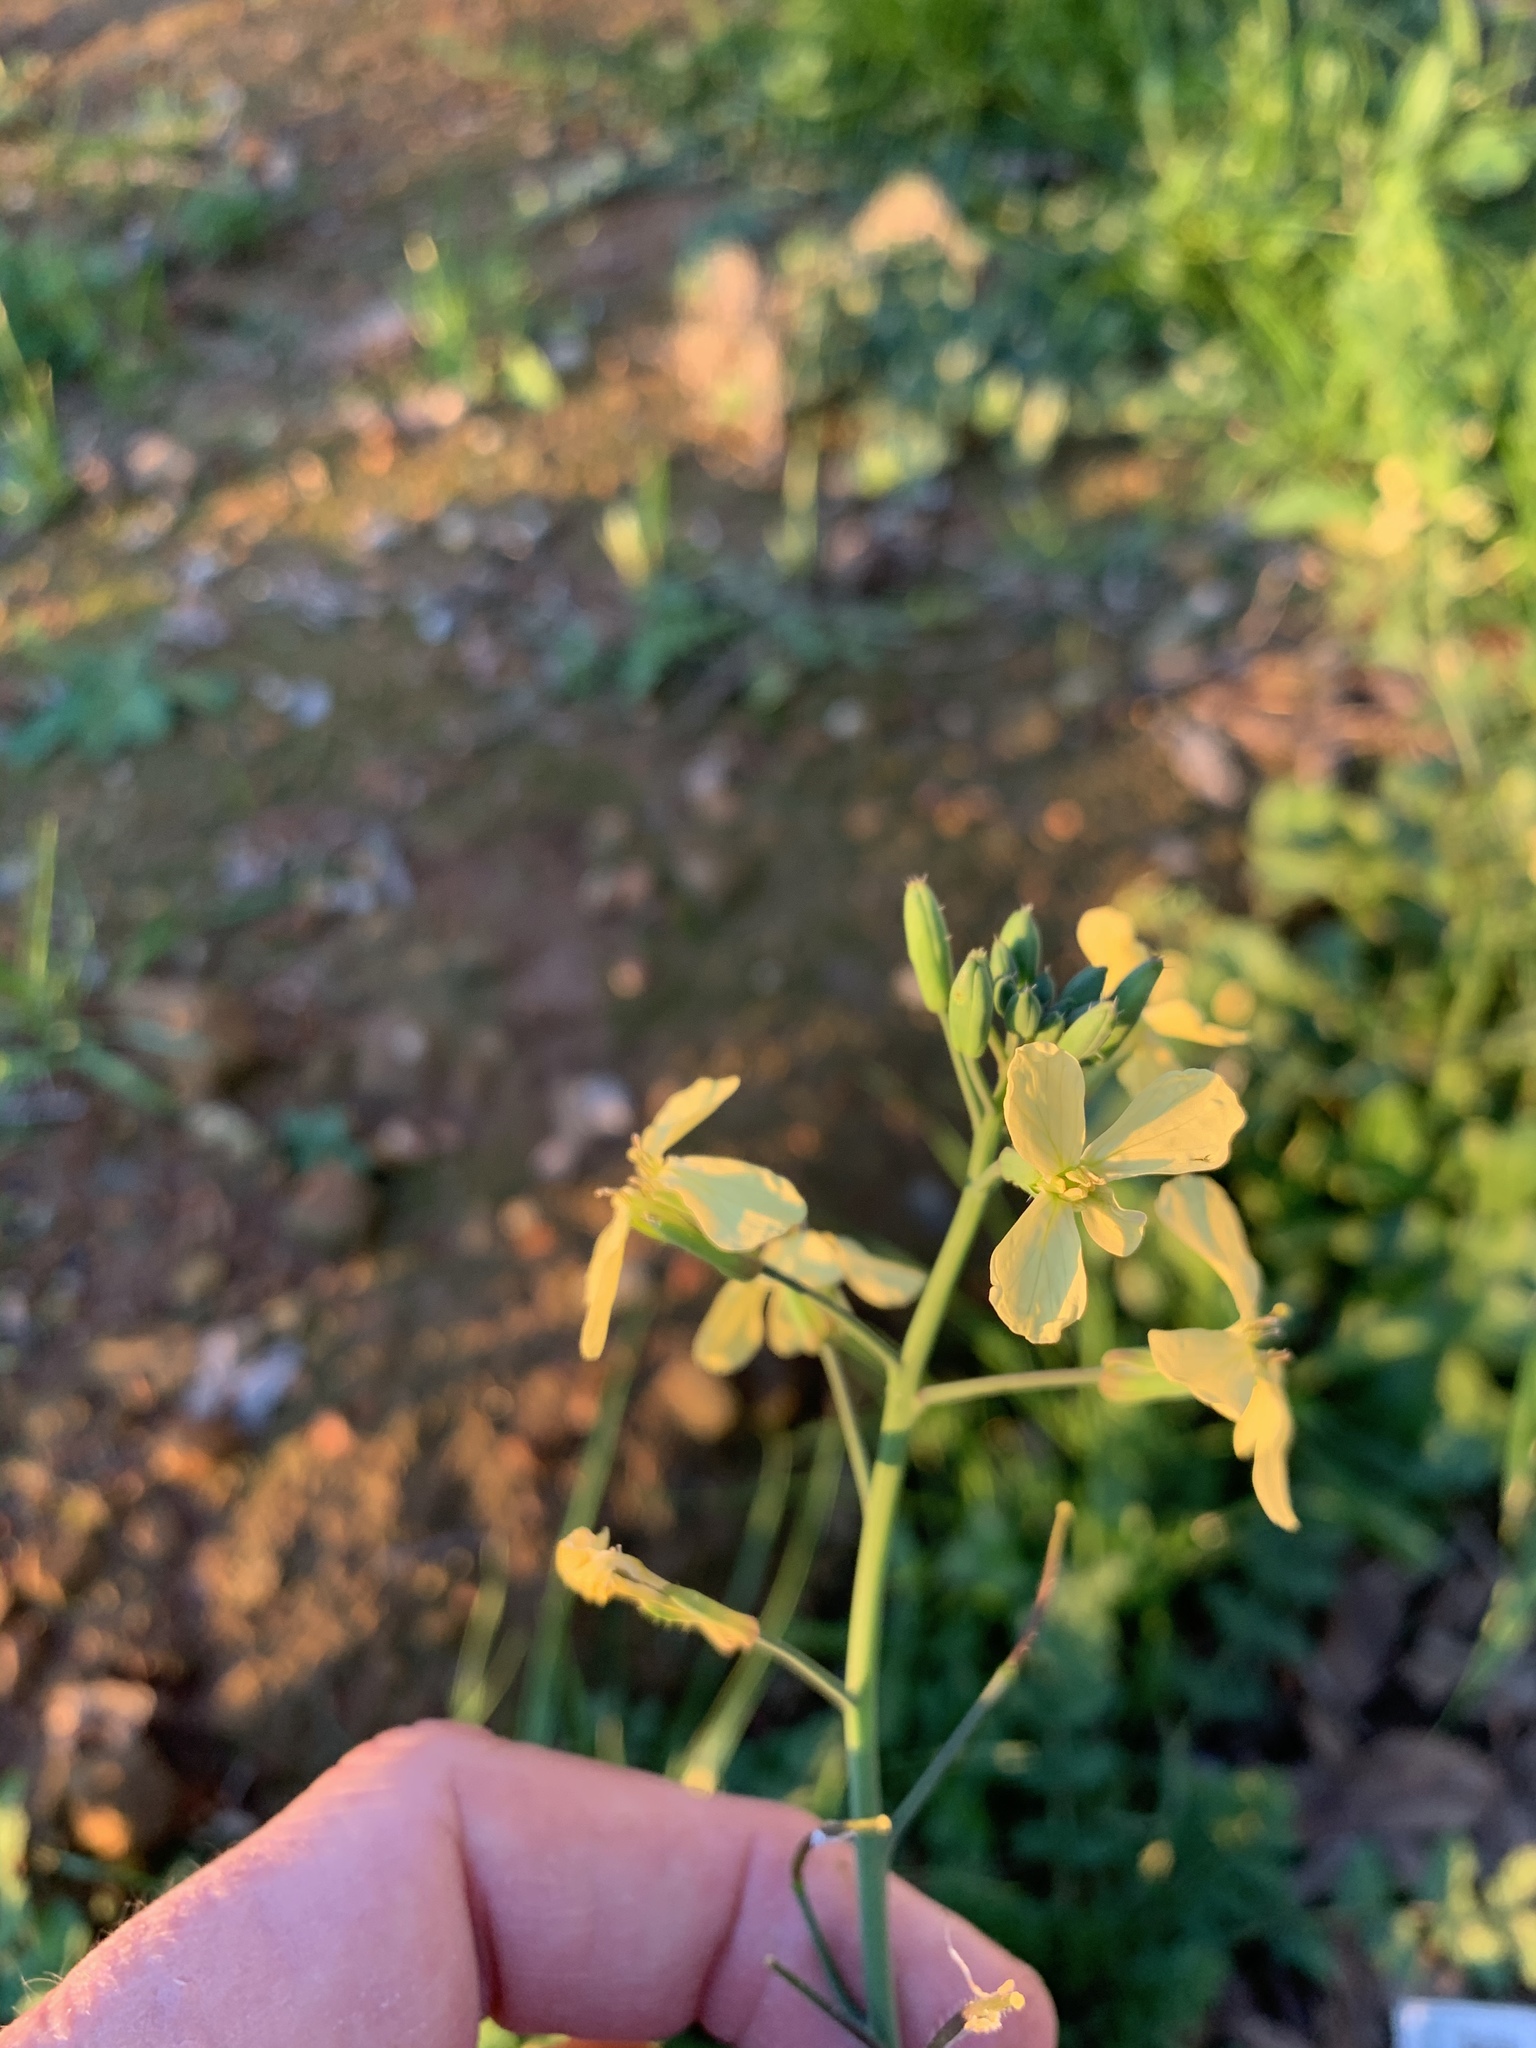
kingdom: Plantae
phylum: Tracheophyta
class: Magnoliopsida
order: Brassicales
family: Brassicaceae
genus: Raphanus
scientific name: Raphanus raphanistrum
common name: Wild radish
